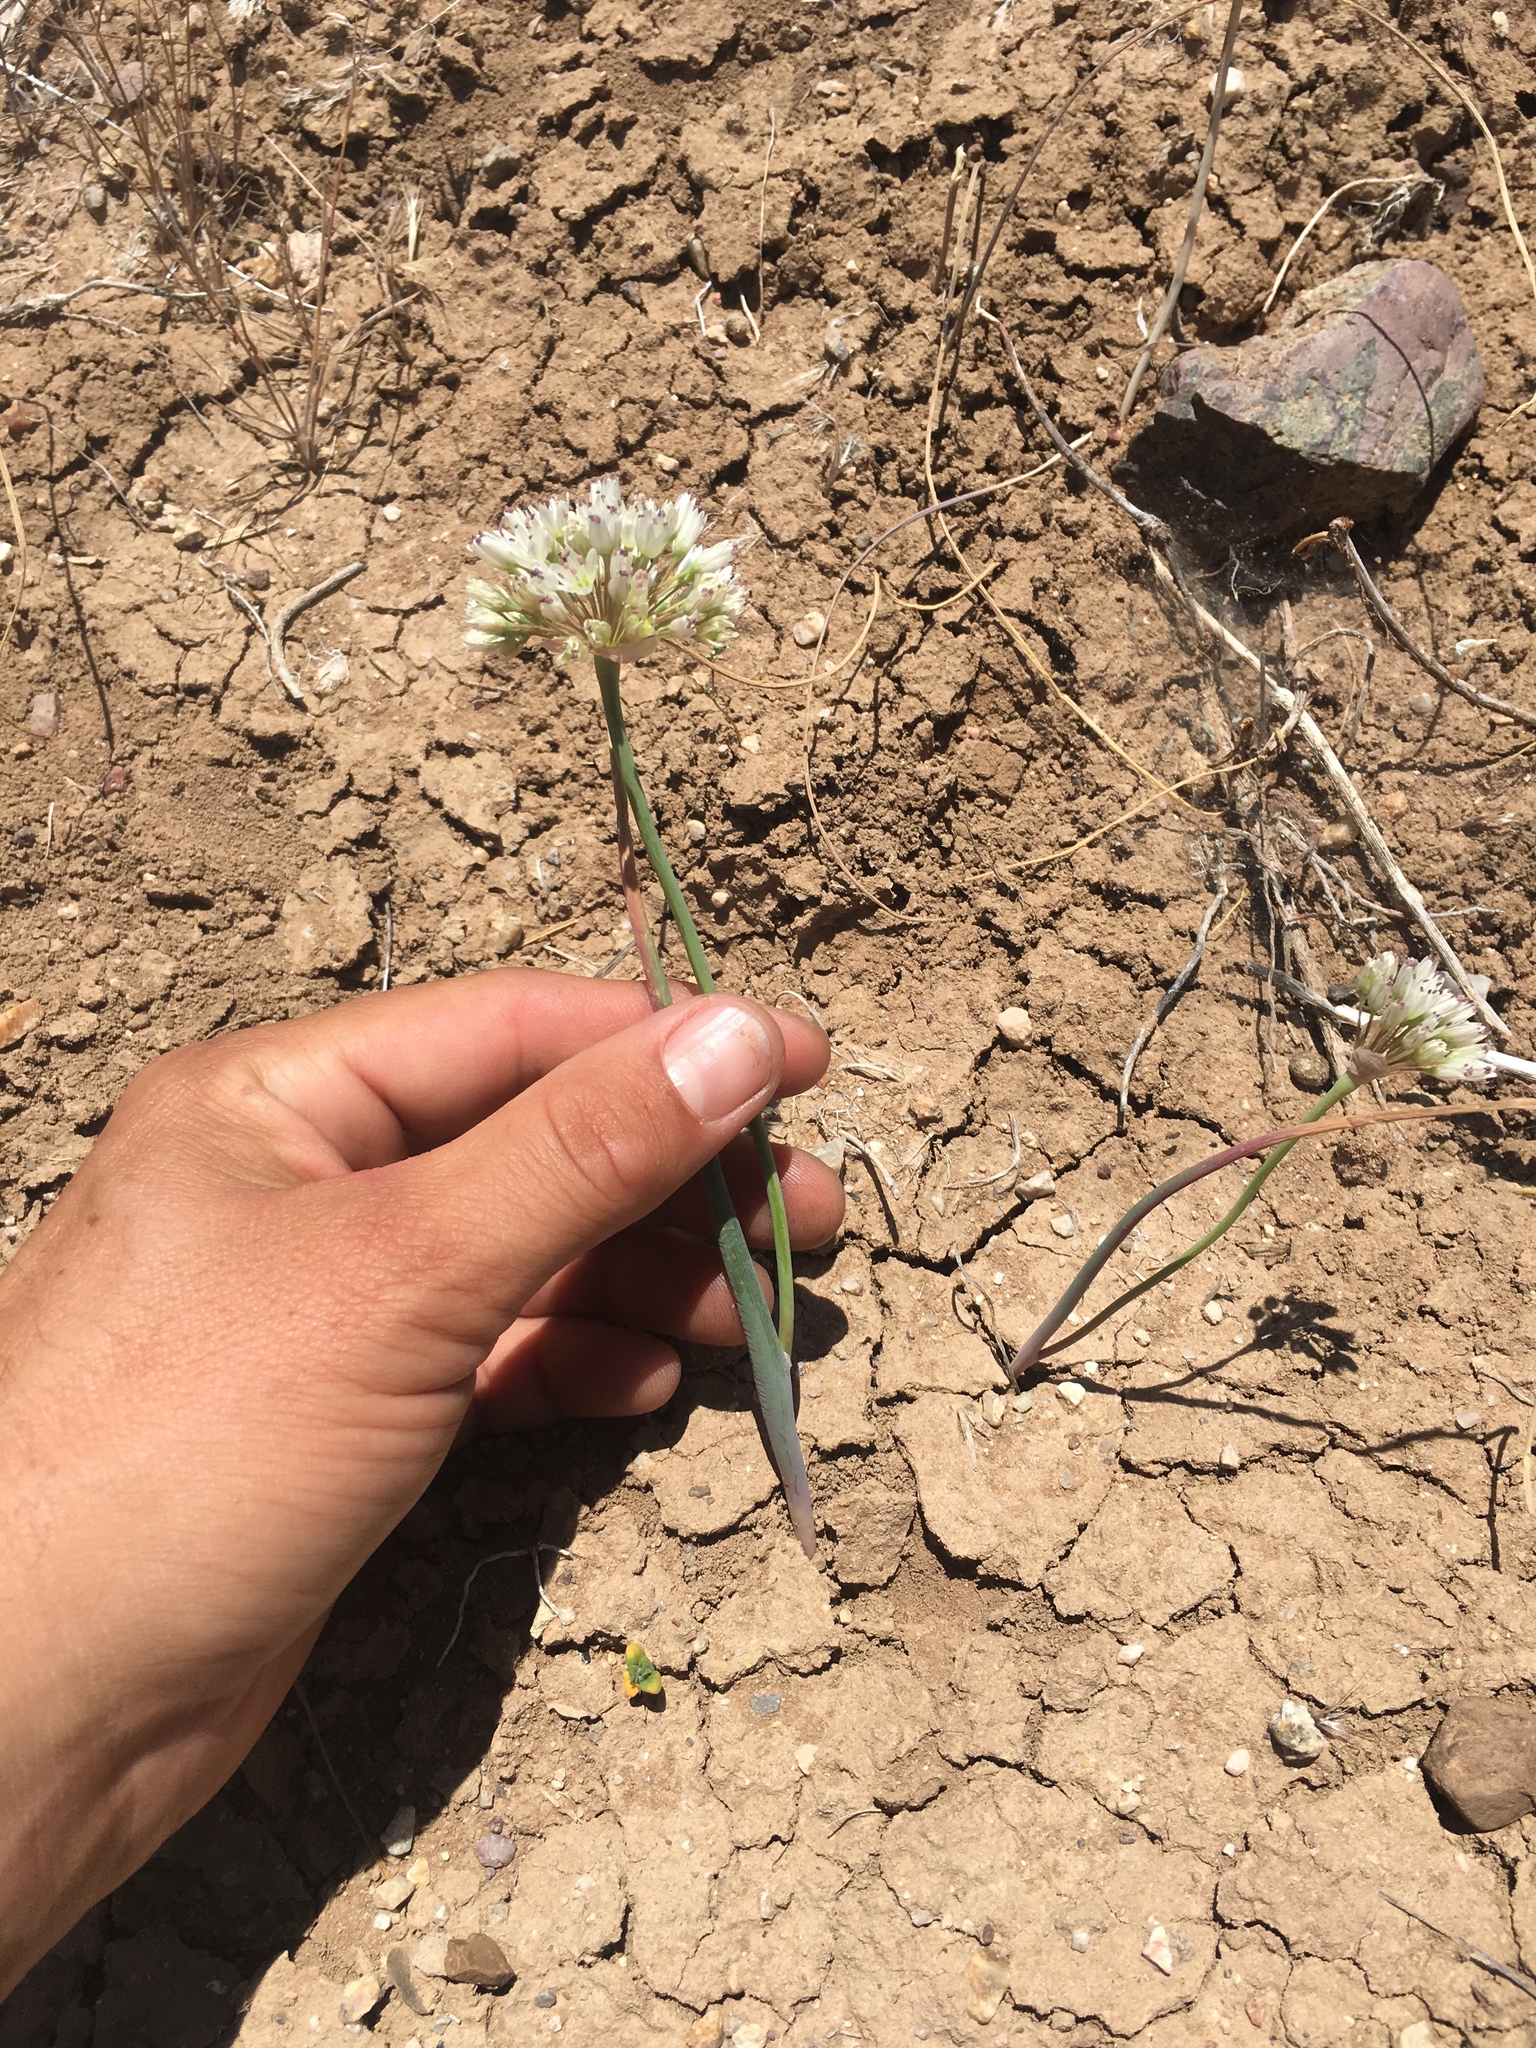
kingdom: Plantae
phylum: Tracheophyta
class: Liliopsida
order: Asparagales
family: Amaryllidaceae
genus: Allium
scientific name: Allium howellii
